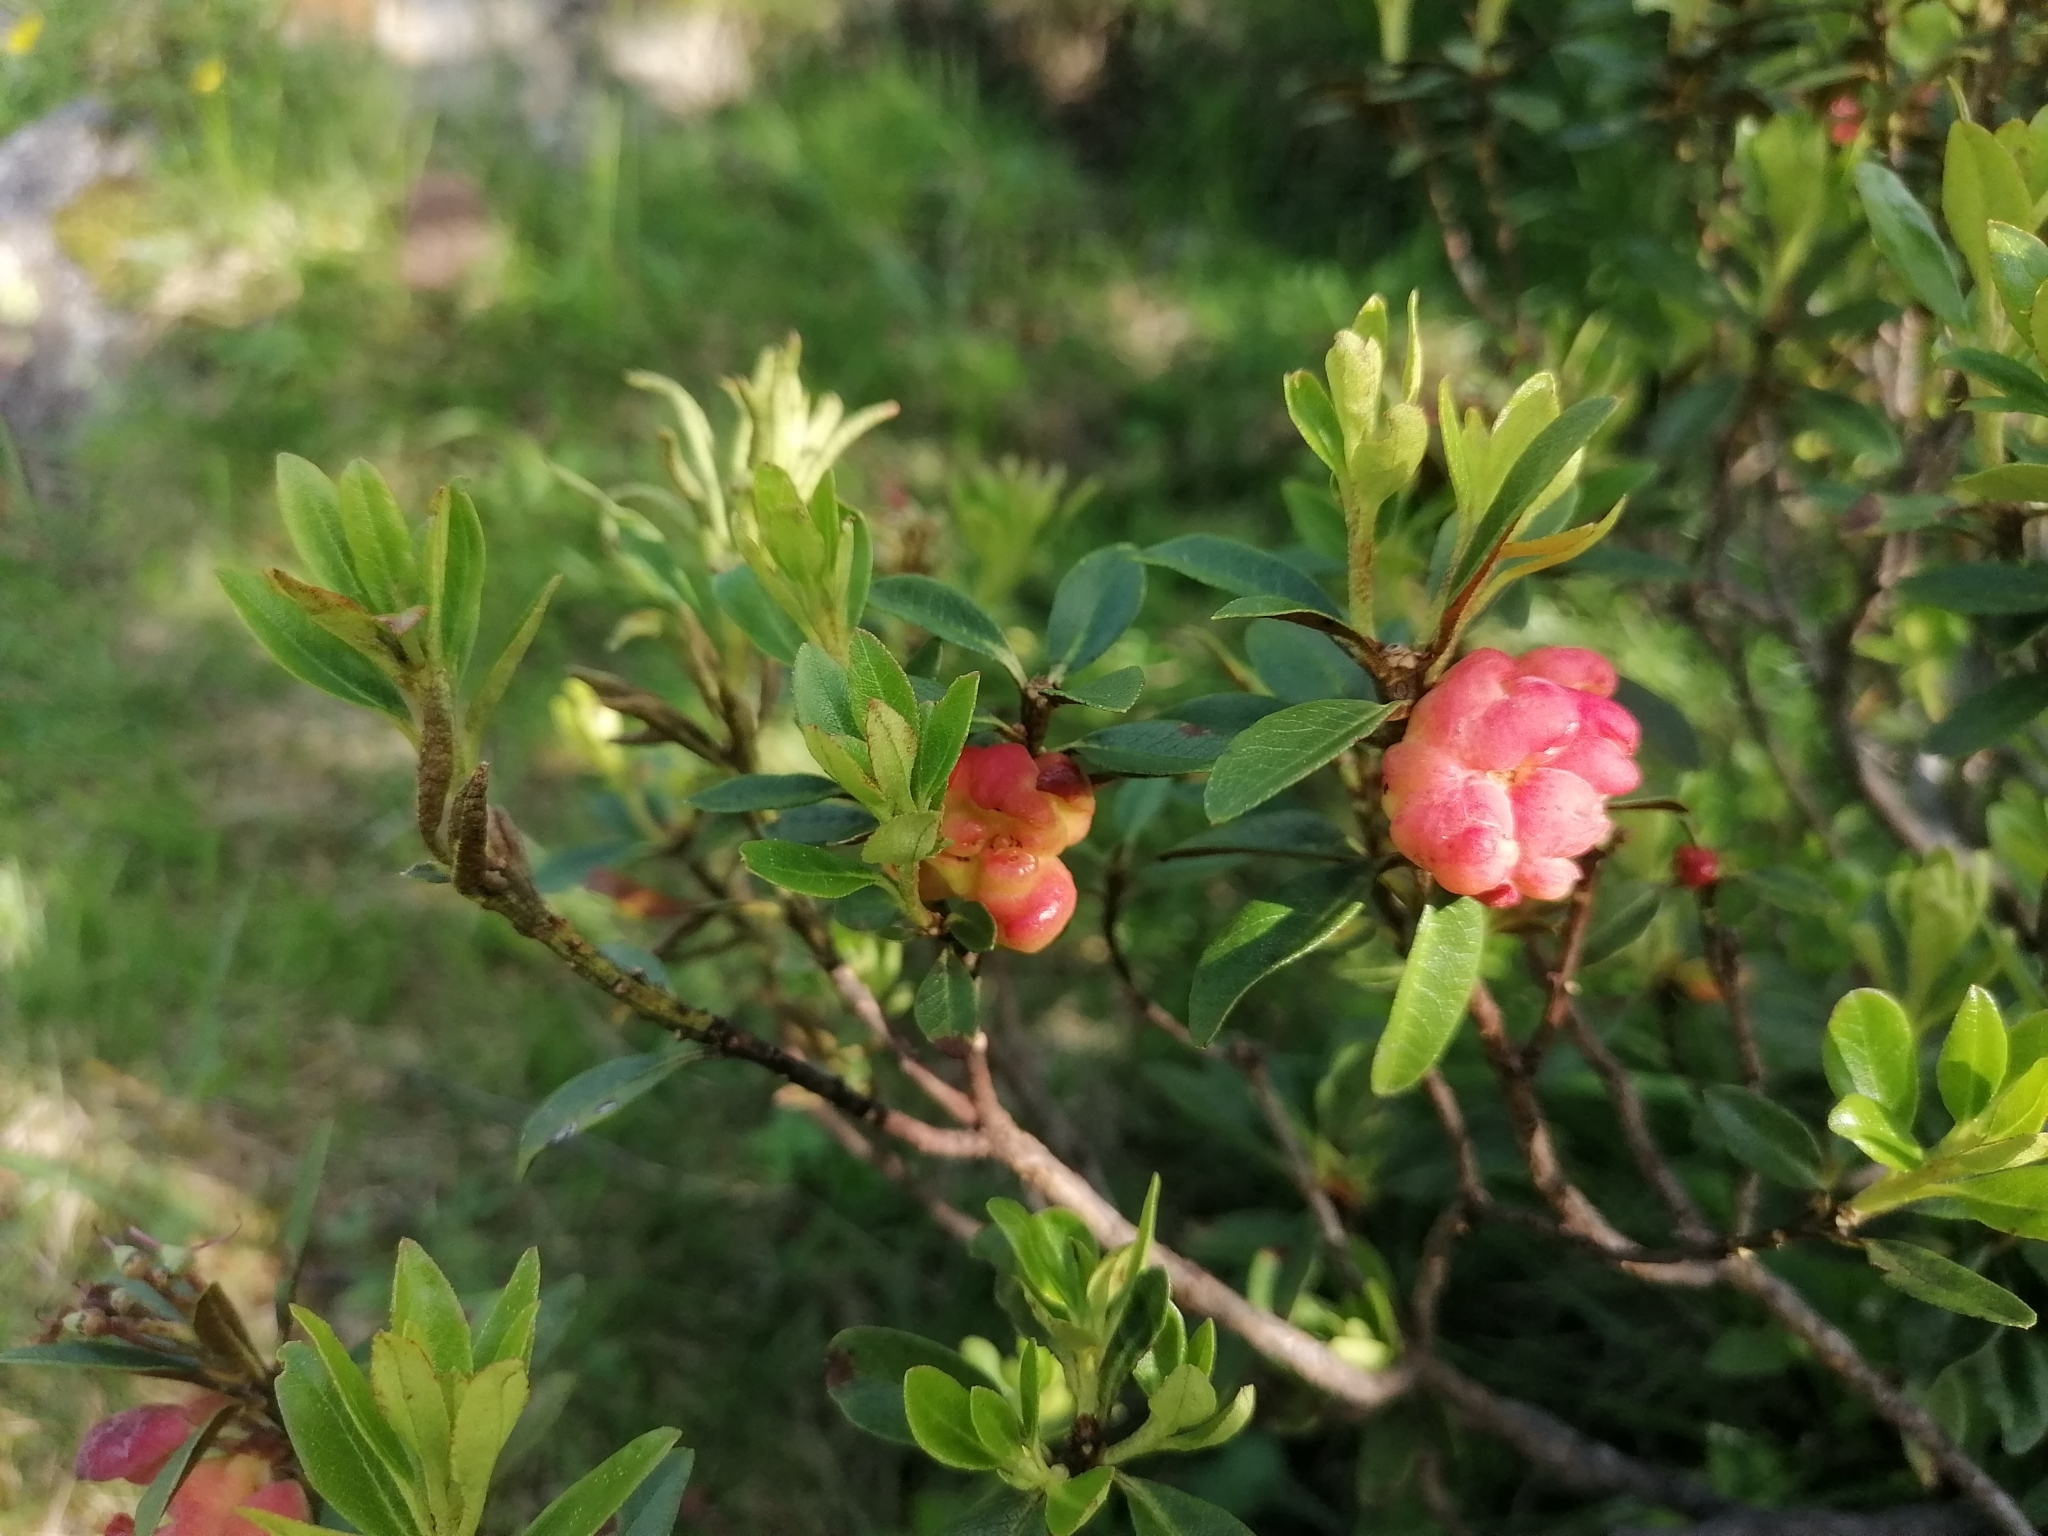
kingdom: Fungi
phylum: Basidiomycota
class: Exobasidiomycetes
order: Exobasidiales
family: Exobasidiaceae
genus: Exobasidium
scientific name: Exobasidium rhododendri
